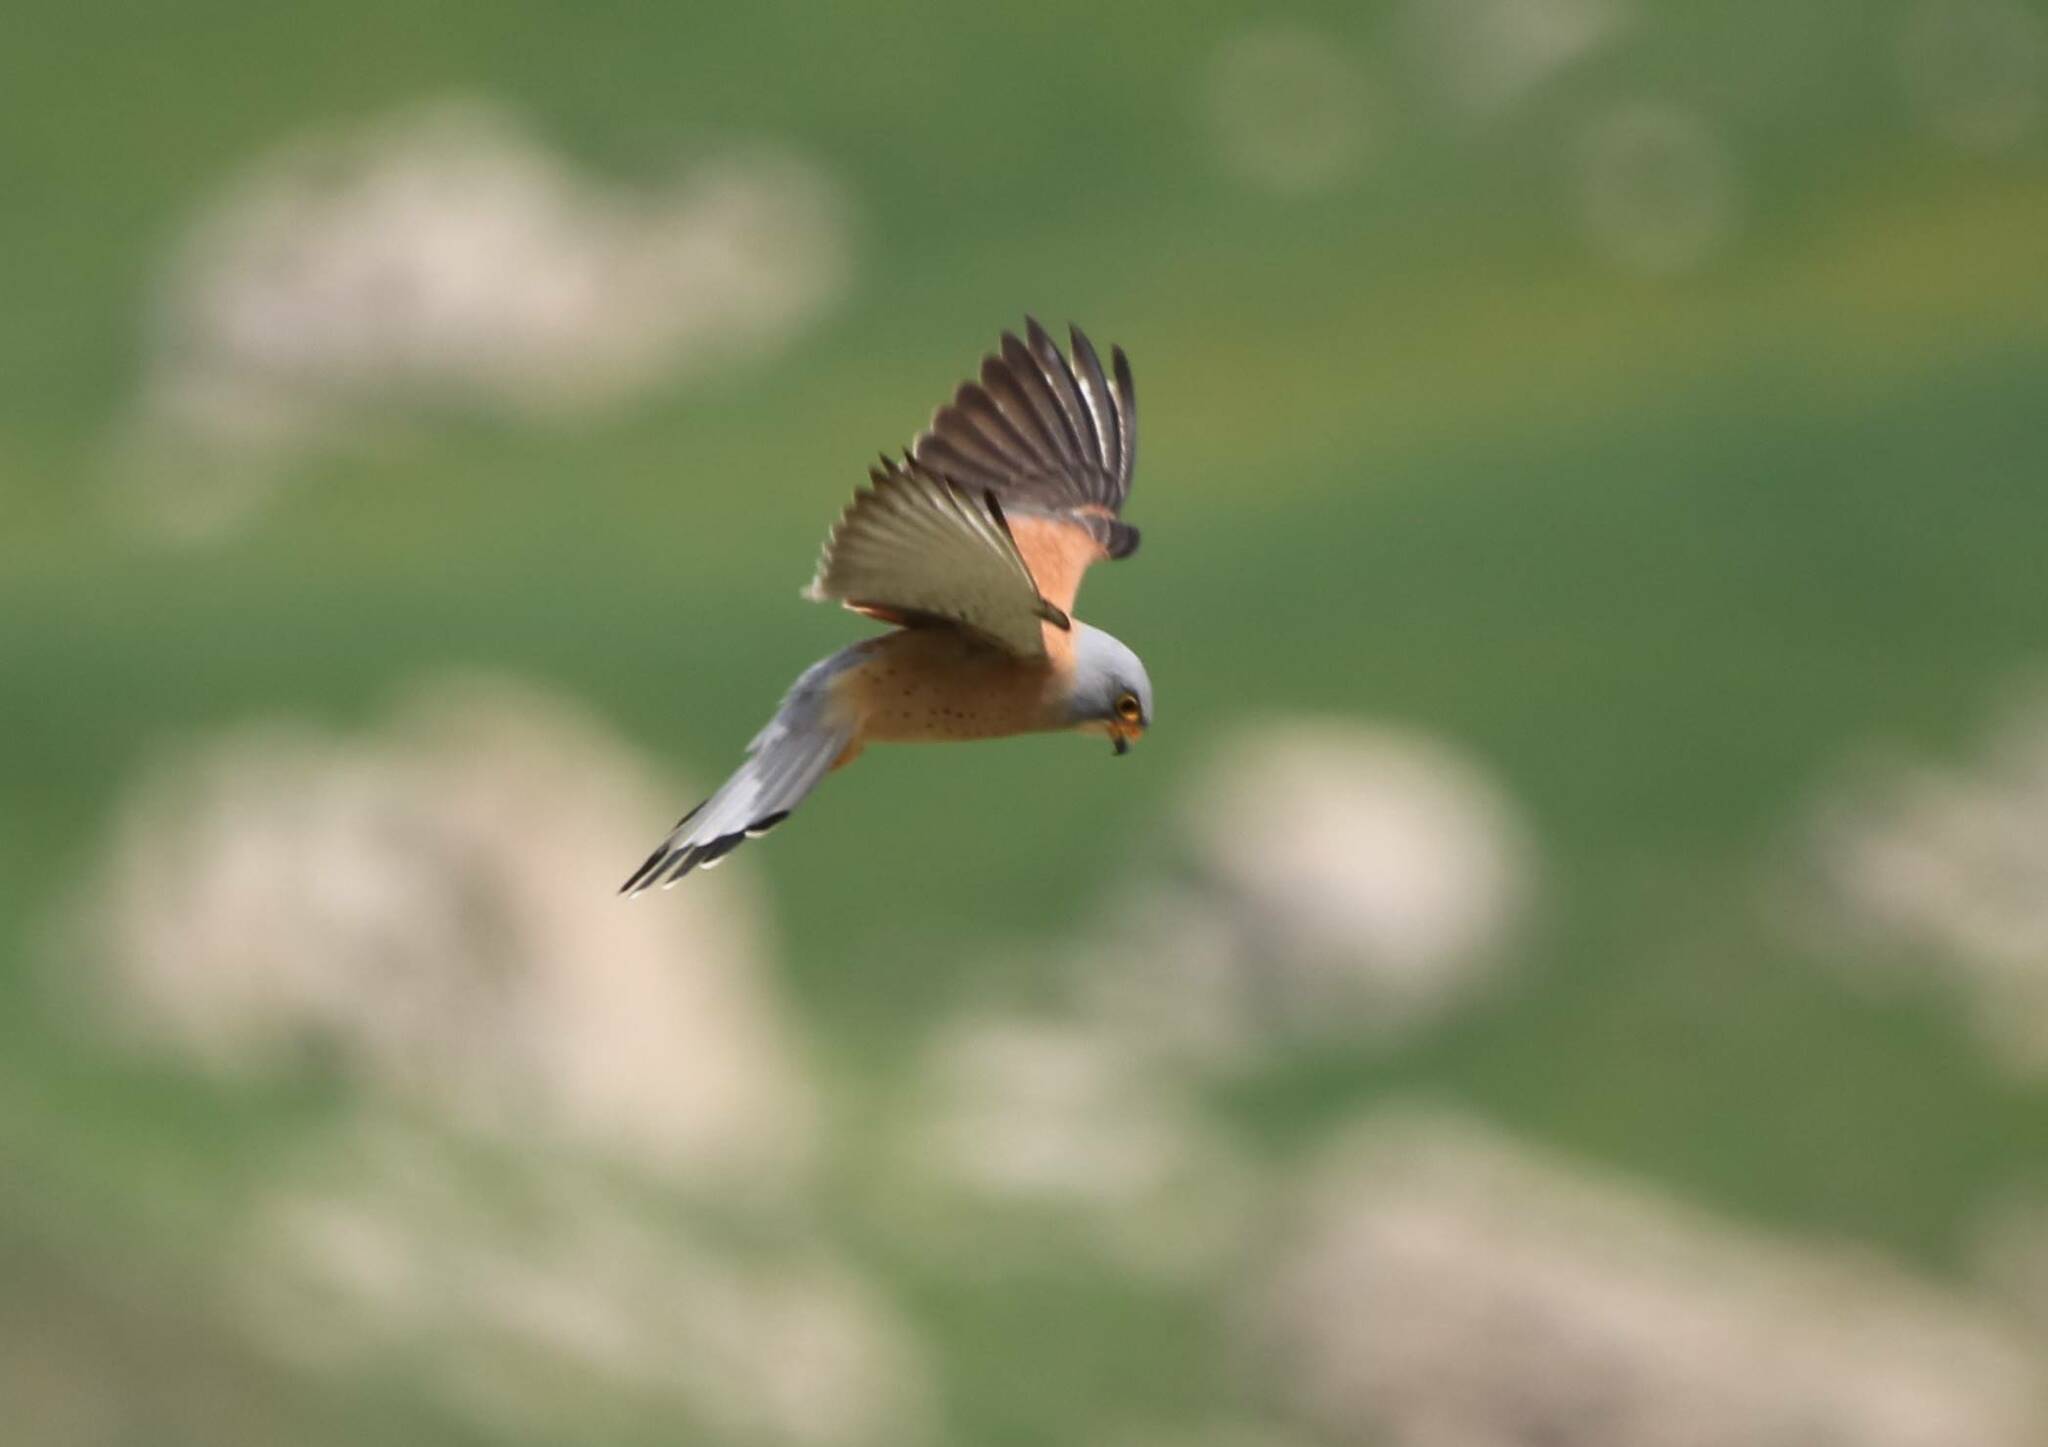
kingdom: Animalia
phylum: Chordata
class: Aves
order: Falconiformes
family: Falconidae
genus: Falco
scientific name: Falco naumanni
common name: Lesser kestrel
